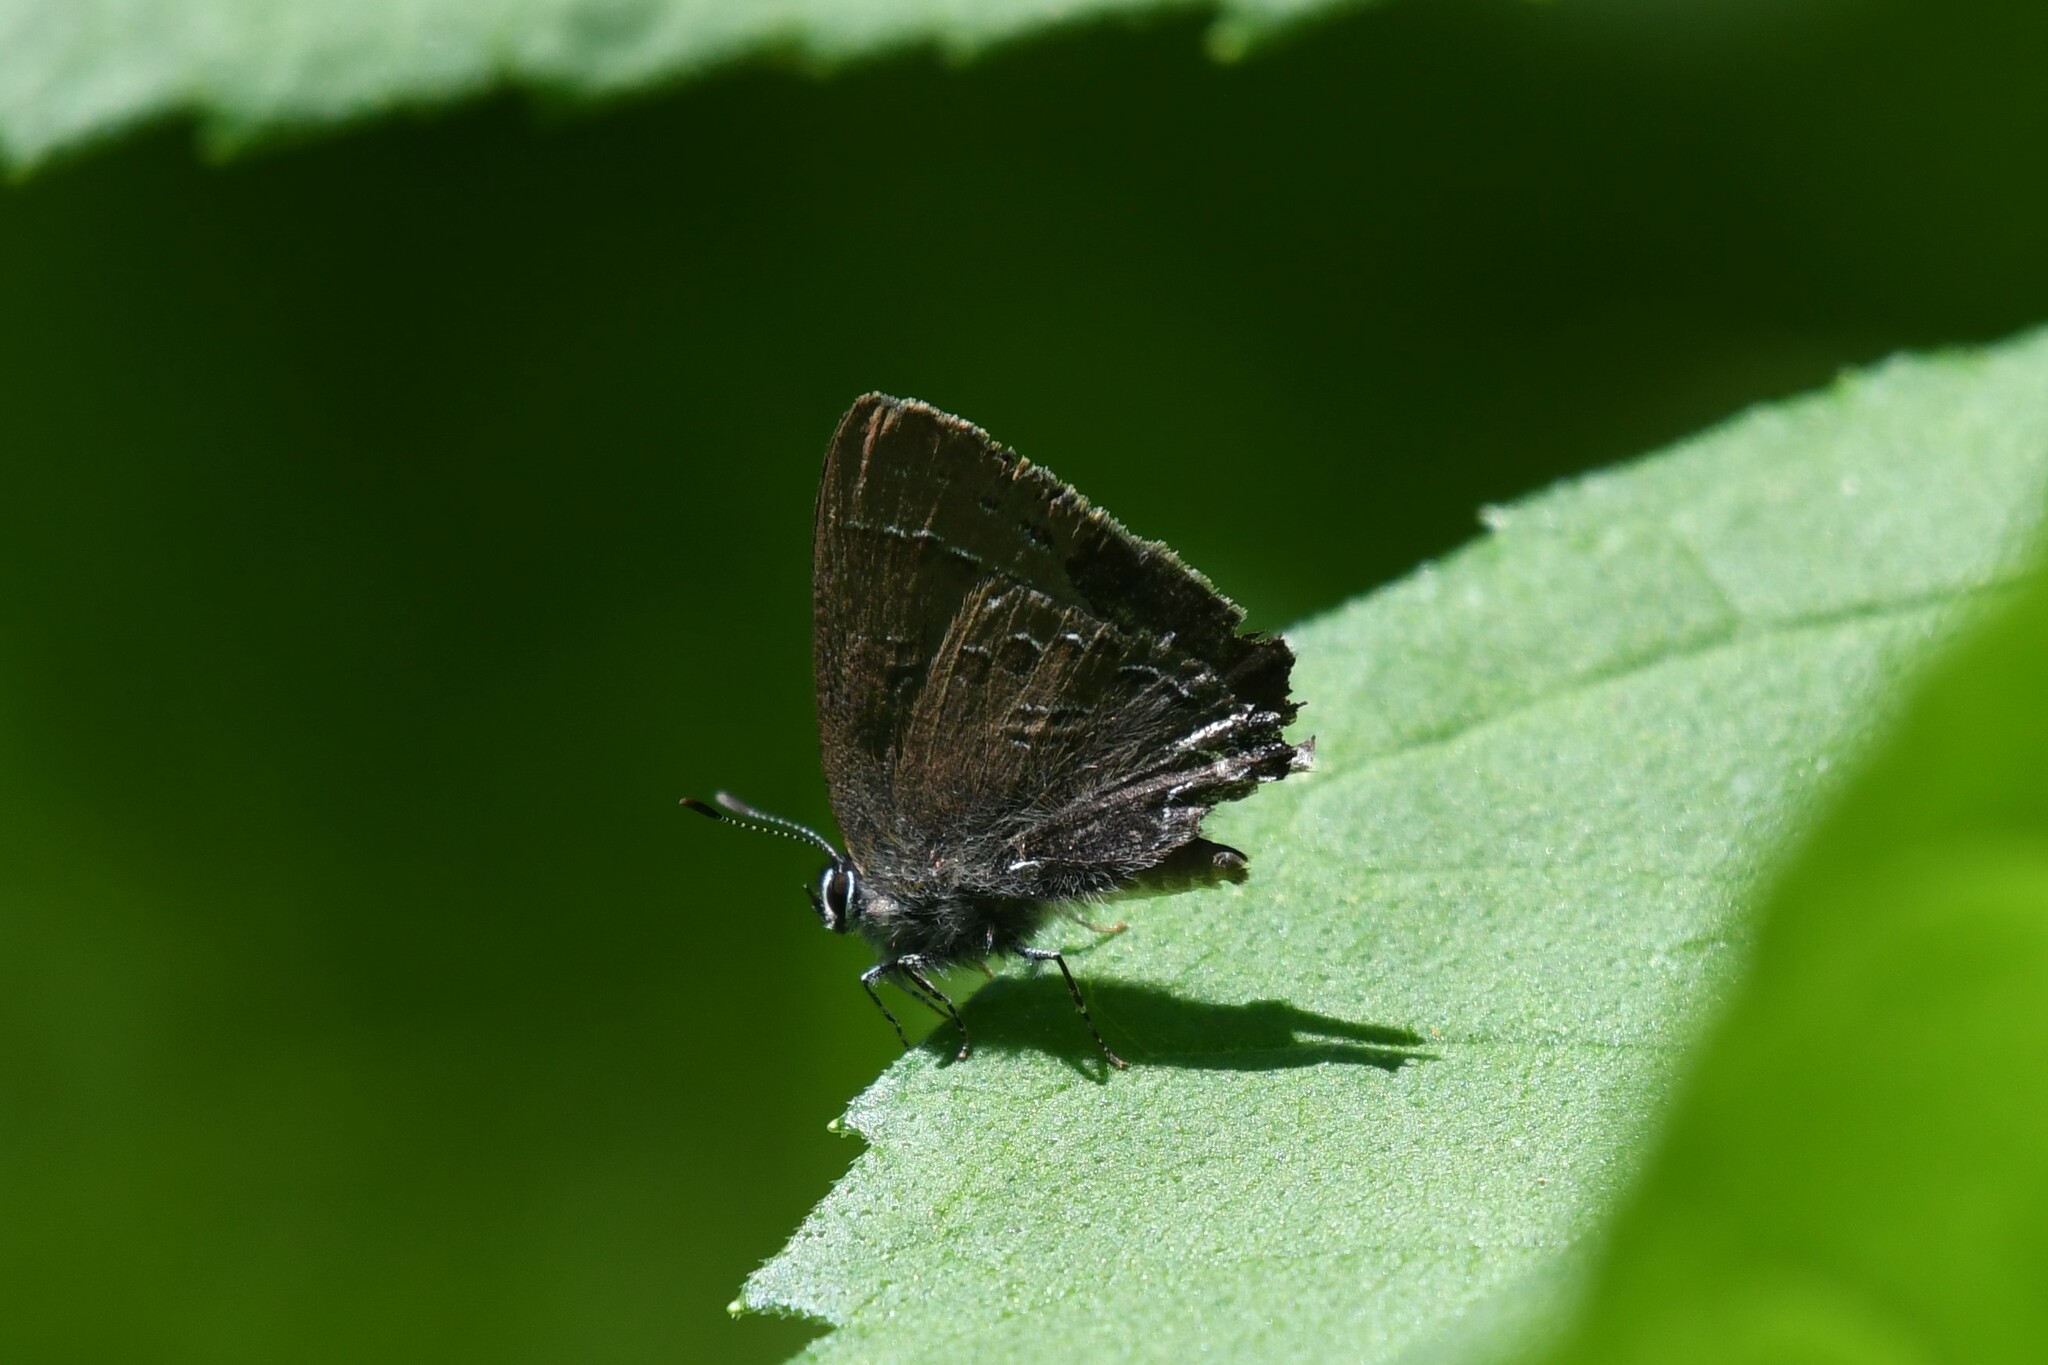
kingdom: Animalia
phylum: Arthropoda
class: Insecta
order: Lepidoptera
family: Lycaenidae
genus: Satyrium
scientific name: Satyrium calanus
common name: Banded hairstreak
